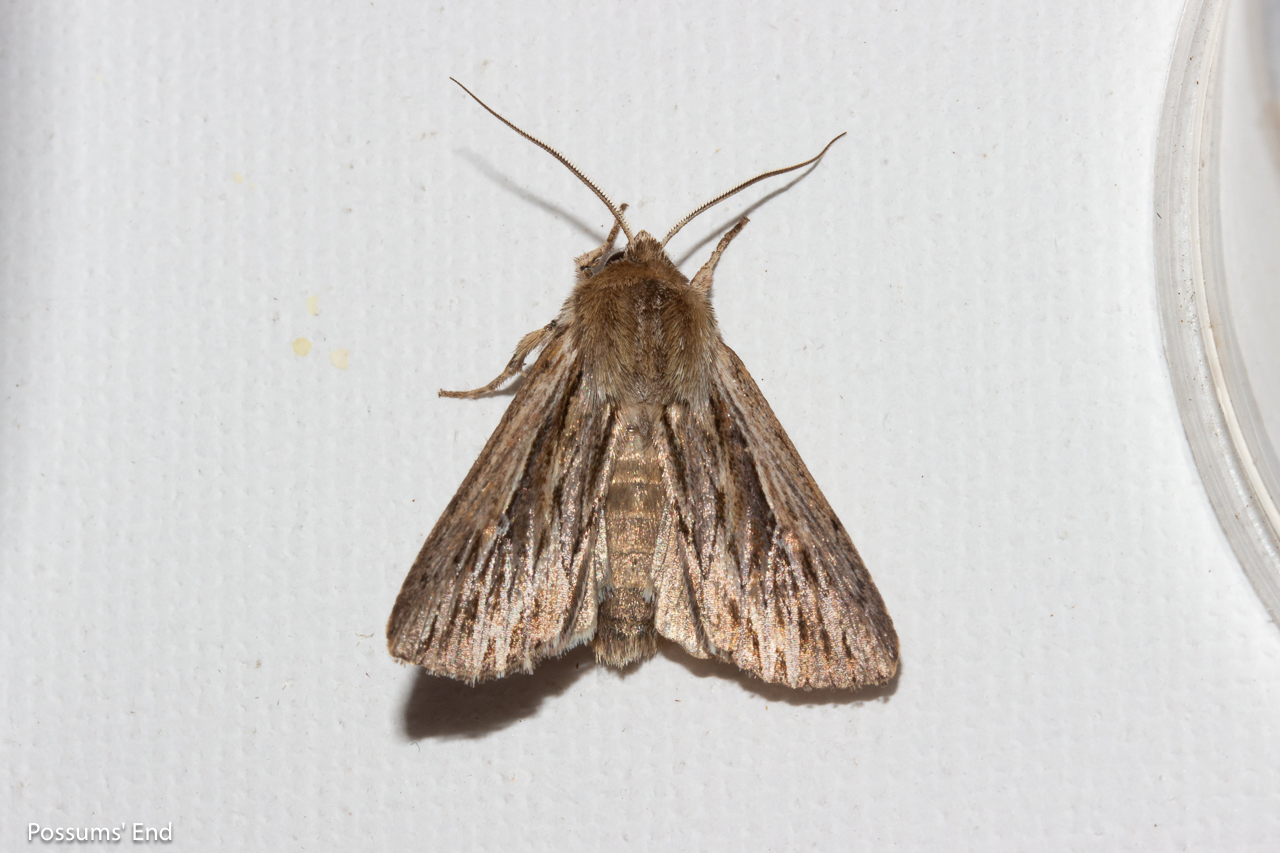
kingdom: Animalia
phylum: Arthropoda
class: Insecta
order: Lepidoptera
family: Noctuidae
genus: Persectania
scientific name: Persectania aversa
